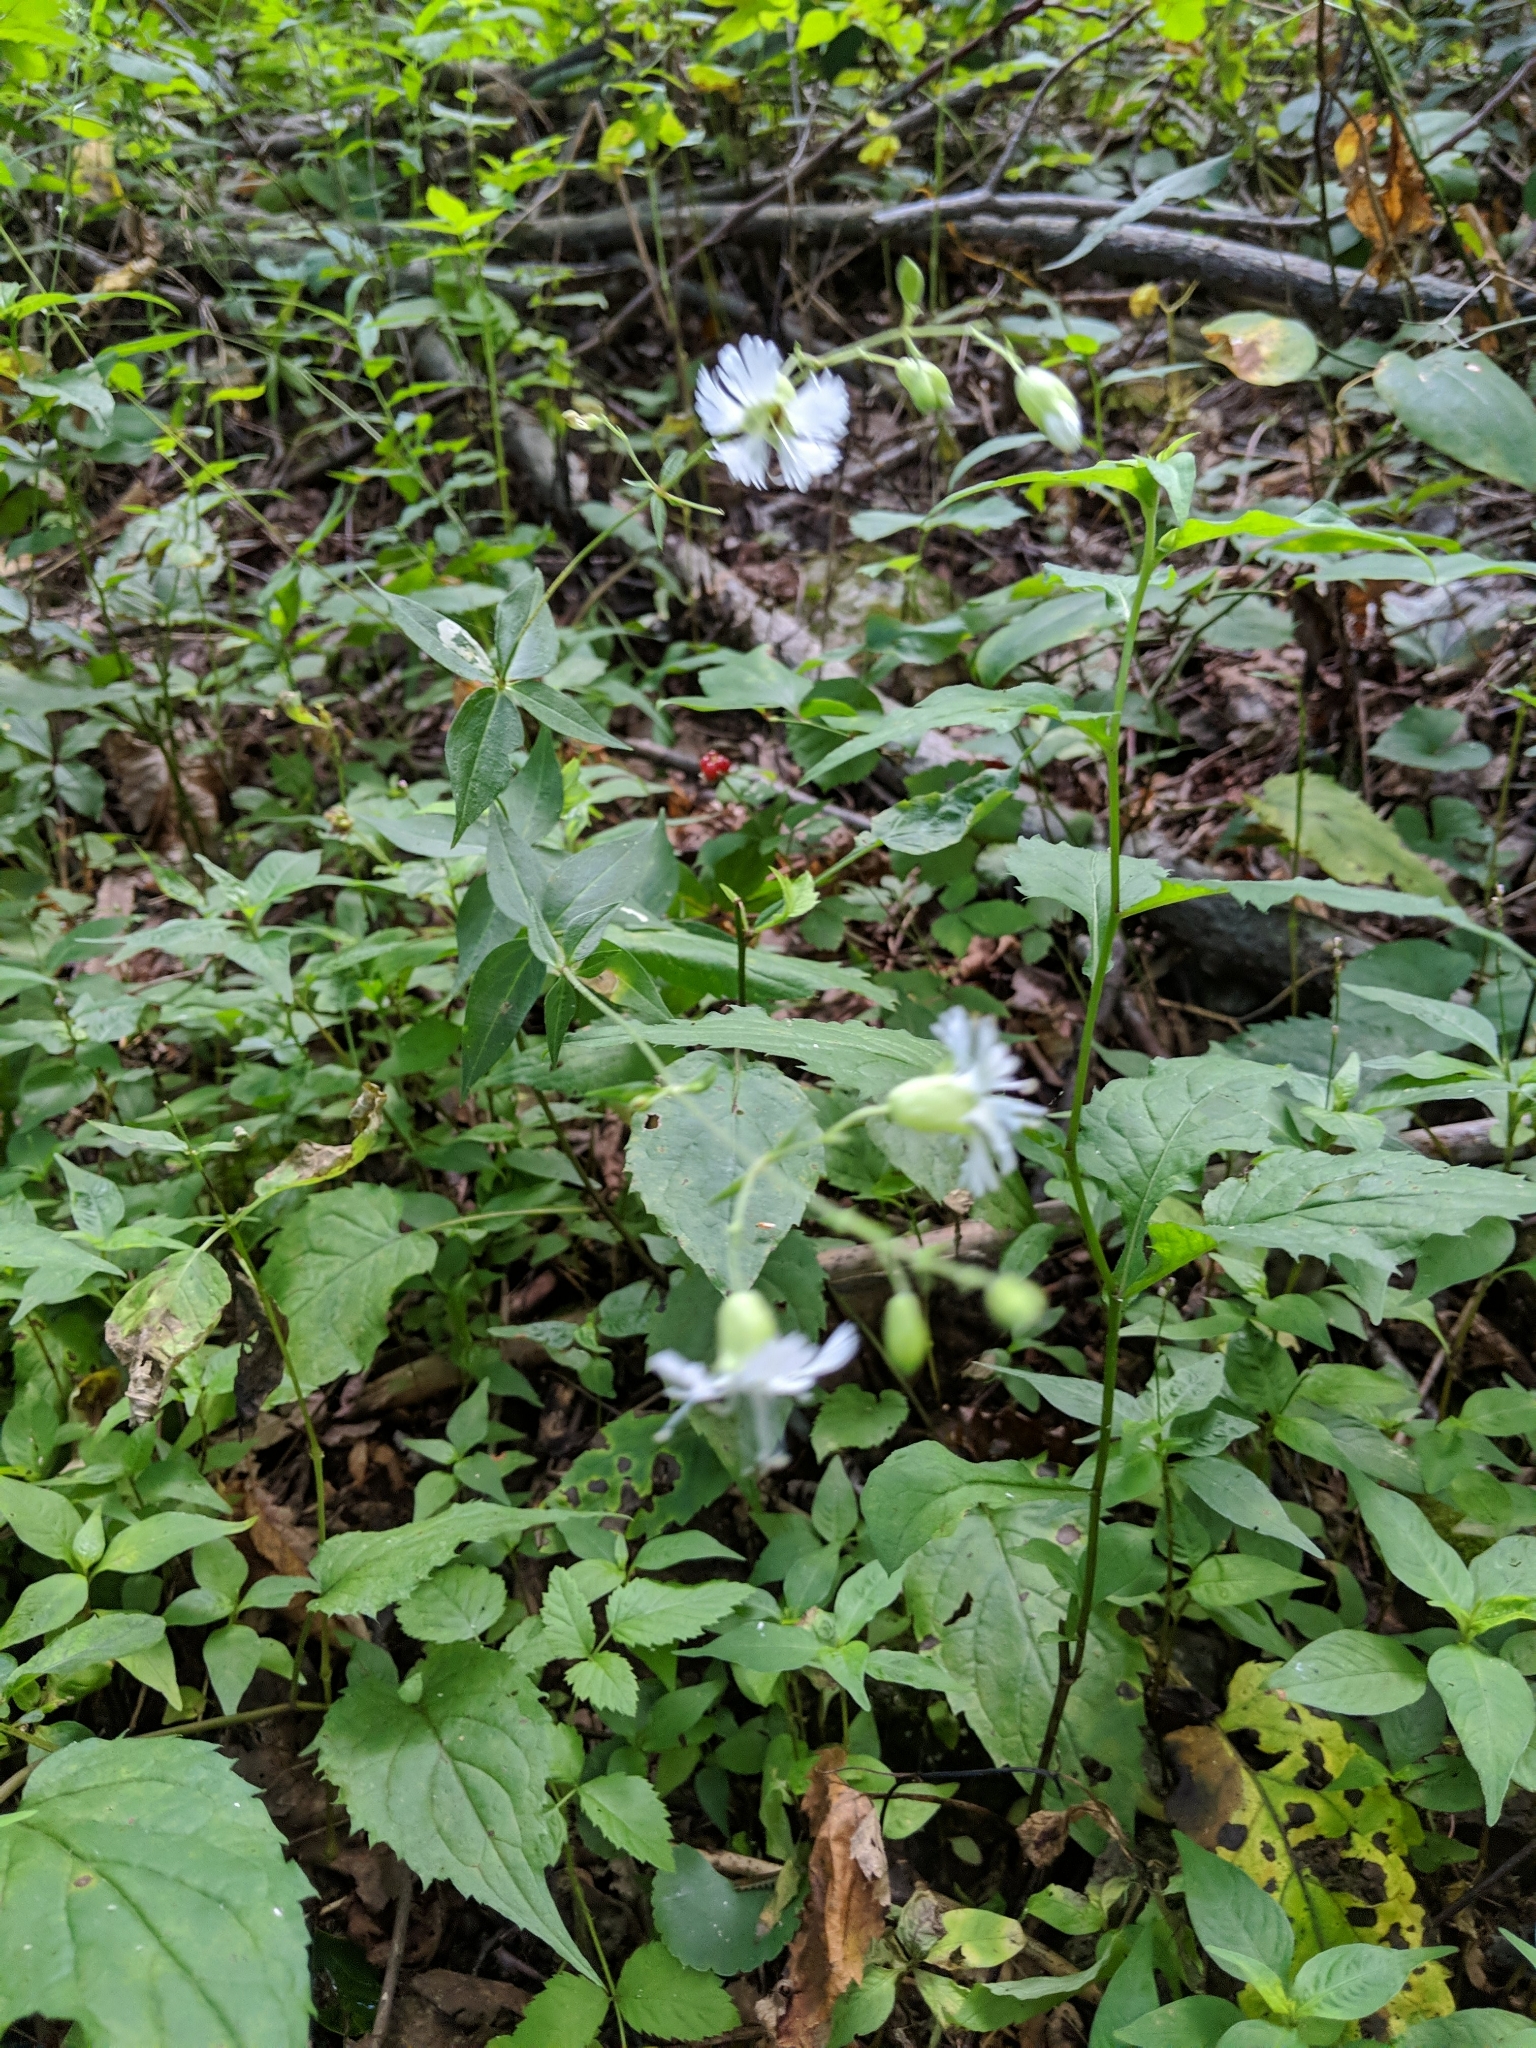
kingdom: Plantae
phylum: Tracheophyta
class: Magnoliopsida
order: Caryophyllales
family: Caryophyllaceae
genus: Silene
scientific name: Silene stellata
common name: Starry campion
